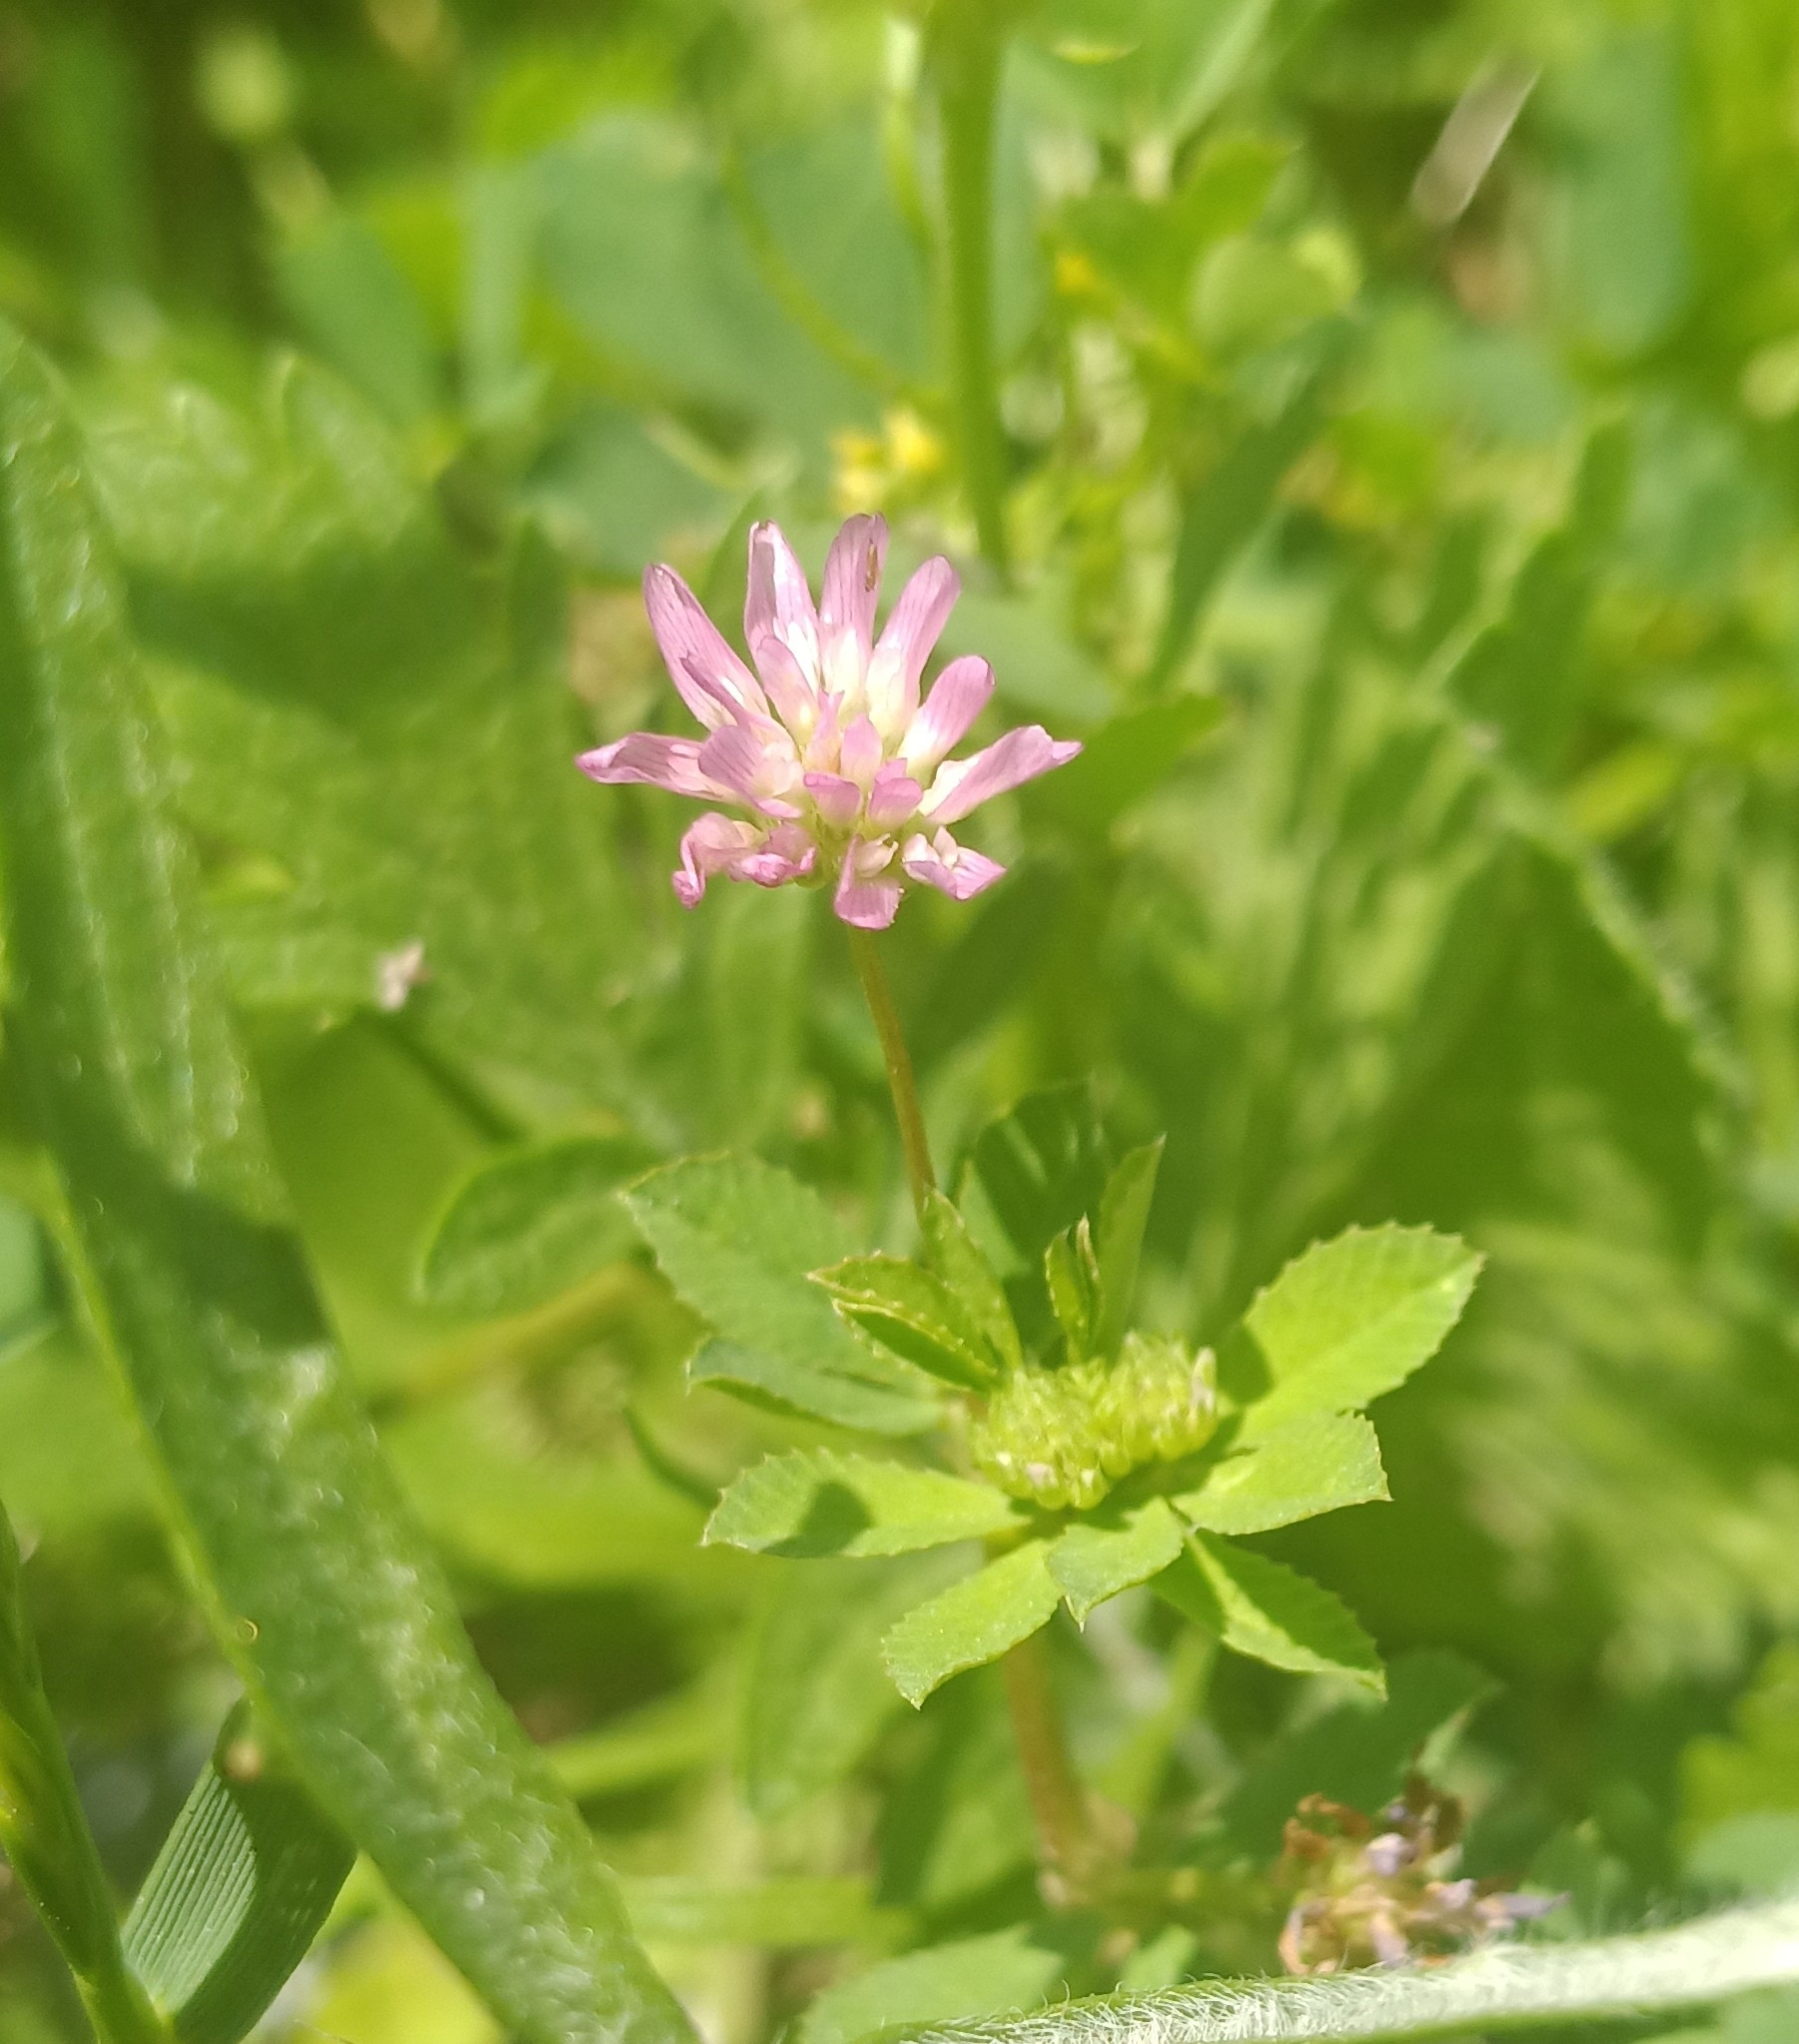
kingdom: Plantae
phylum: Tracheophyta
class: Magnoliopsida
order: Fabales
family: Fabaceae
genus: Trifolium
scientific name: Trifolium resupinatum
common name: Reversed clover
